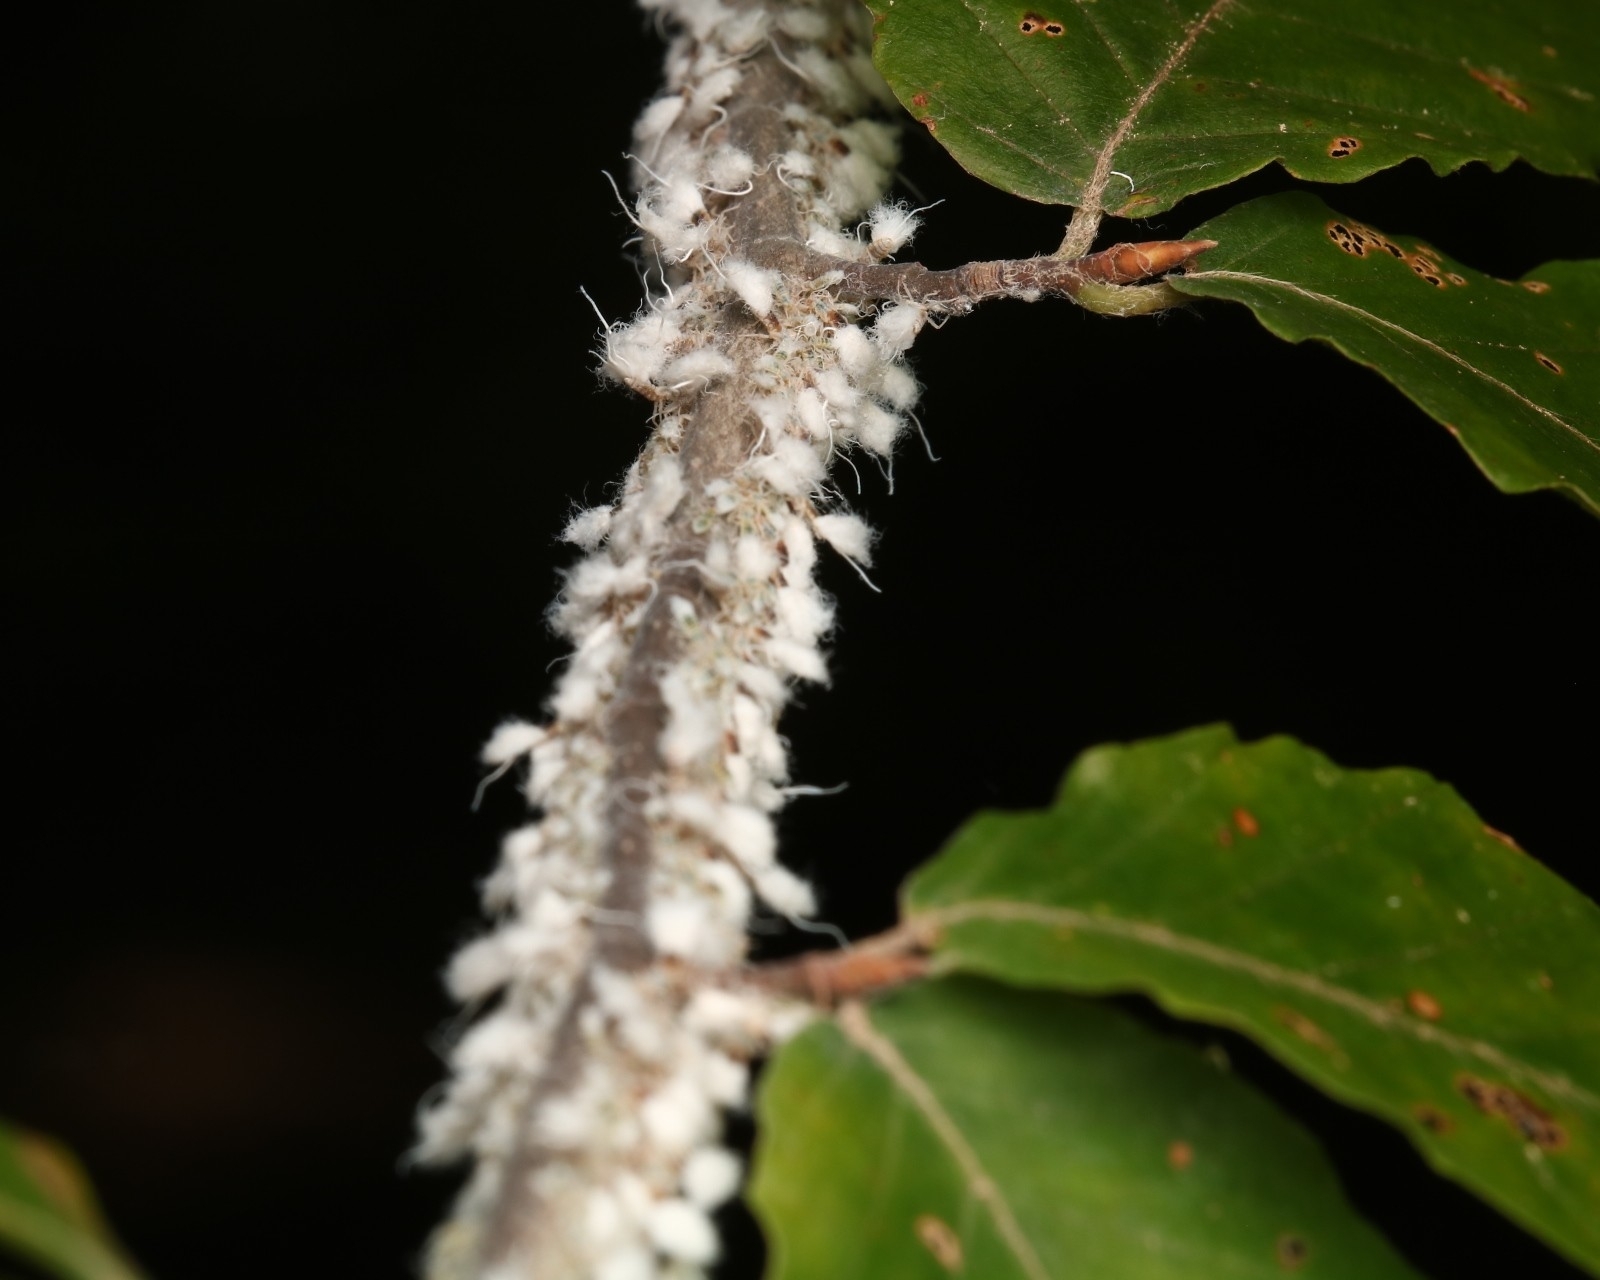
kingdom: Animalia
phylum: Arthropoda
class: Insecta
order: Hemiptera
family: Aphididae
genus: Grylloprociphilus
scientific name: Grylloprociphilus imbricator
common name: Beech blight aphid
